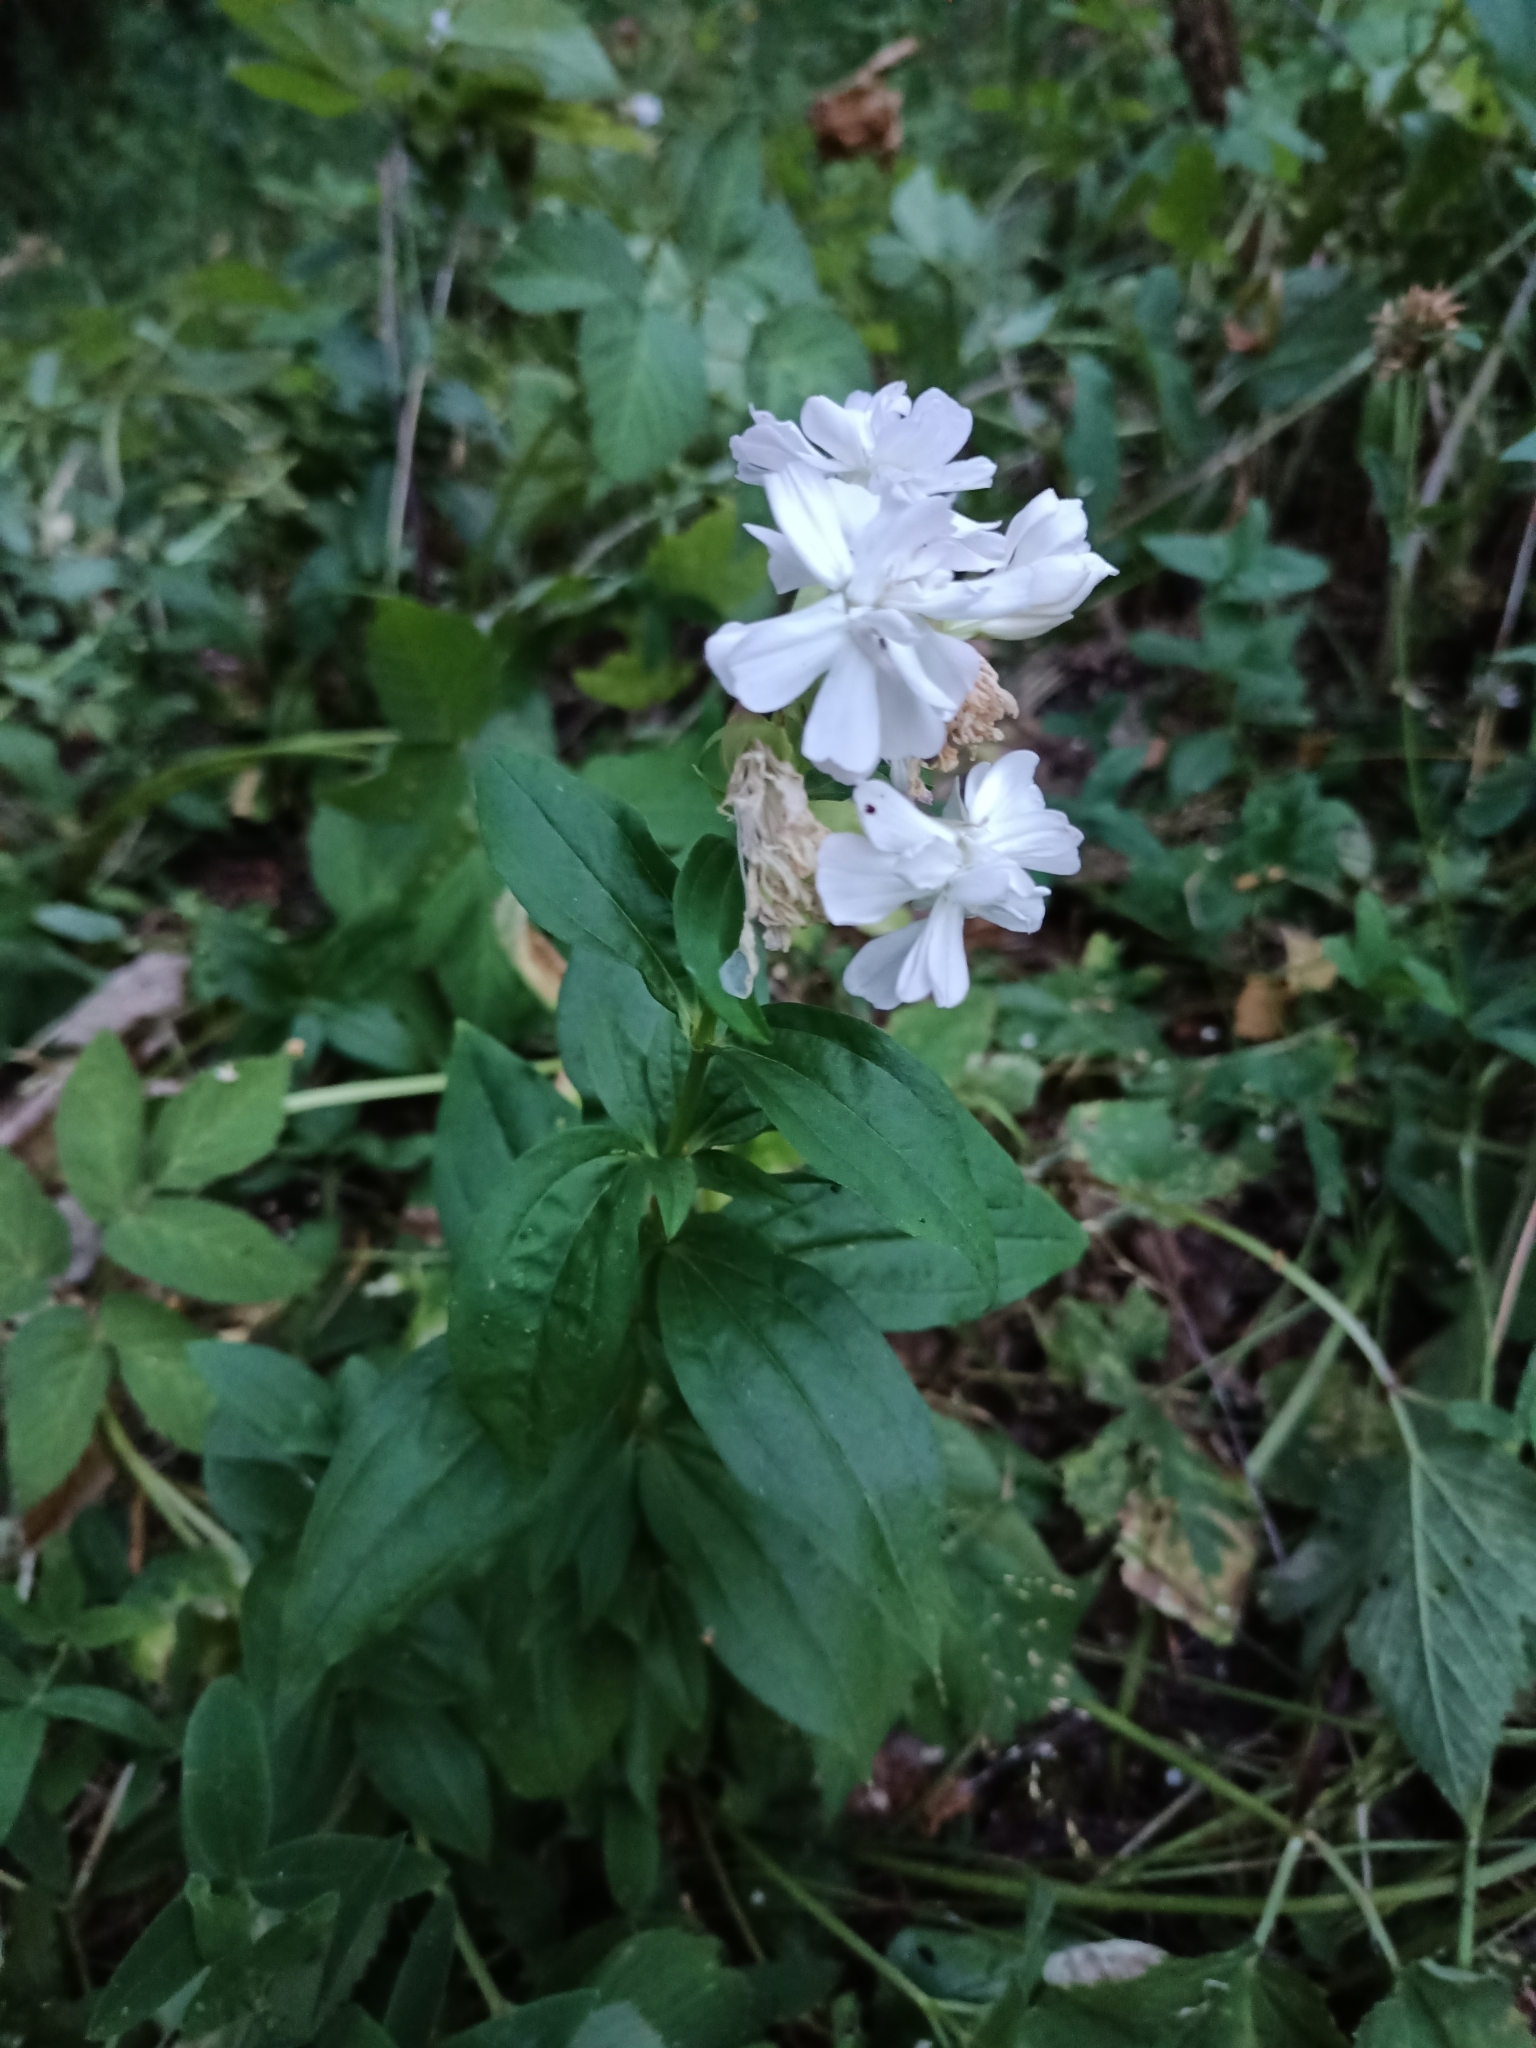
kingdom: Plantae
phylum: Tracheophyta
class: Magnoliopsida
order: Caryophyllales
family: Caryophyllaceae
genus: Saponaria
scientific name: Saponaria officinalis
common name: Soapwort
